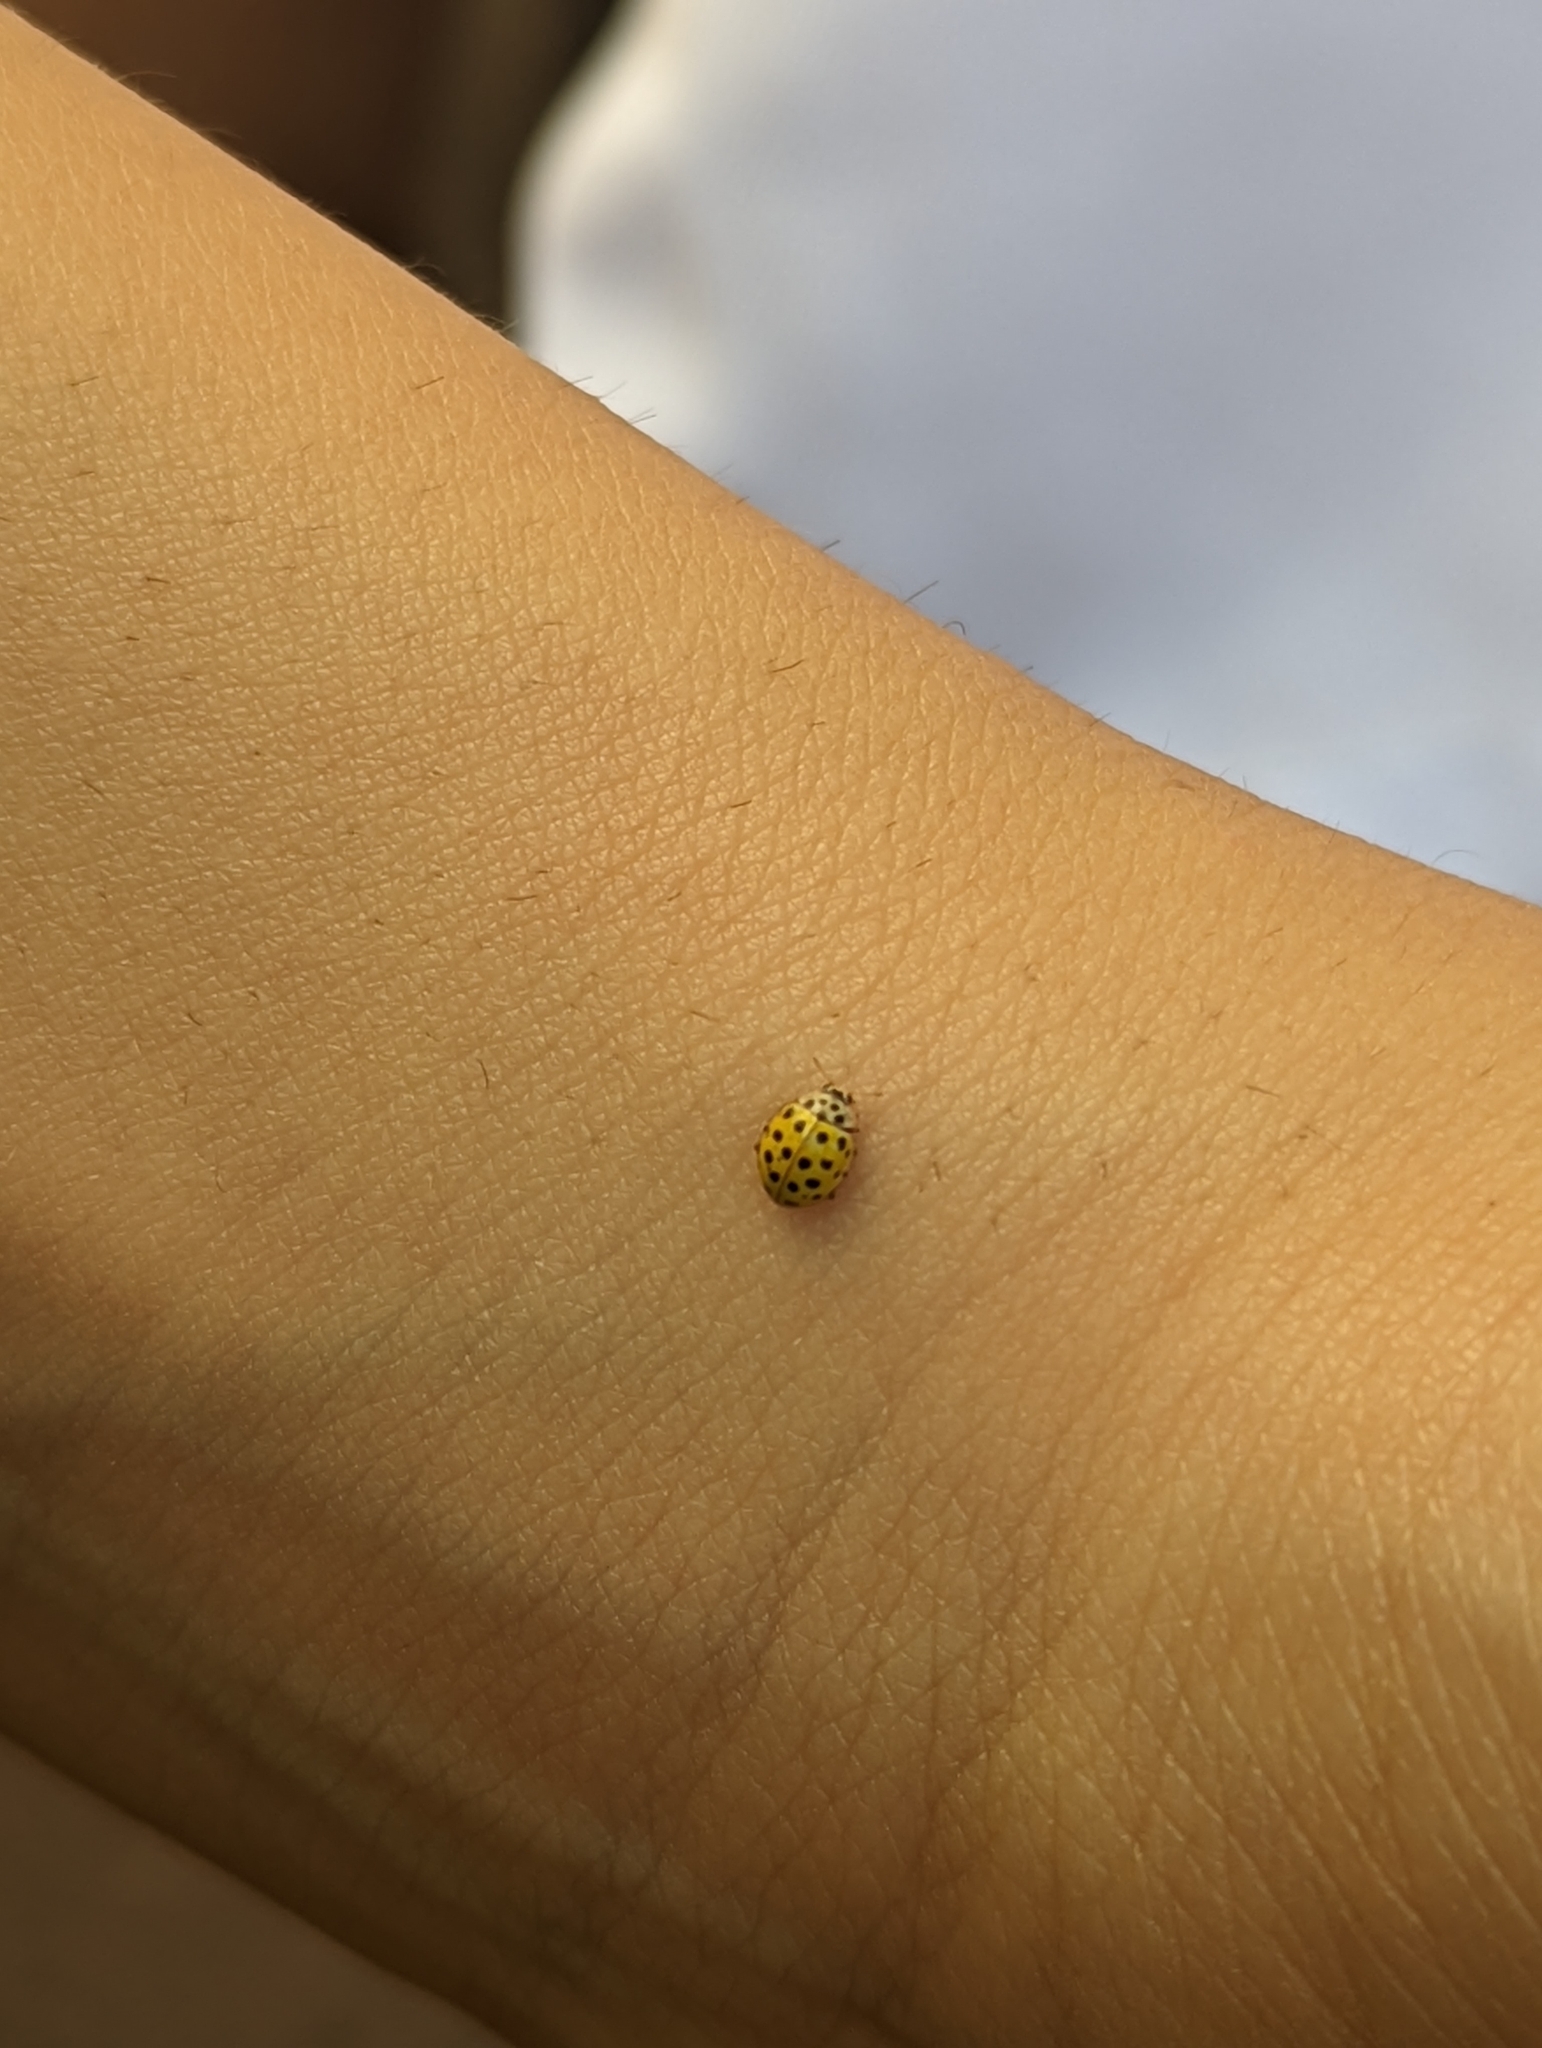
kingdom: Animalia
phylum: Arthropoda
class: Insecta
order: Coleoptera
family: Coccinellidae
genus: Psyllobora
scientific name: Psyllobora vigintiduopunctata
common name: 22-spot ladybird
